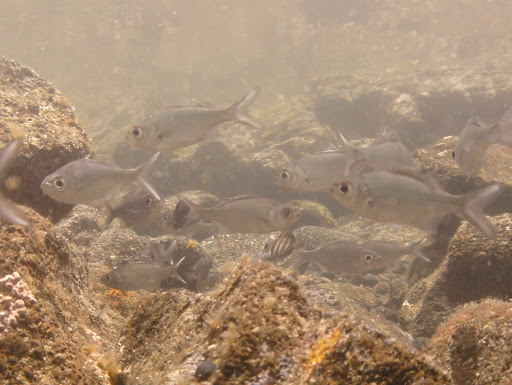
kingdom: Animalia
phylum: Chordata
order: Perciformes
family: Kuhliidae
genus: Kuhlia
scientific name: Kuhlia xenura
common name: Hawaiian flagtail
